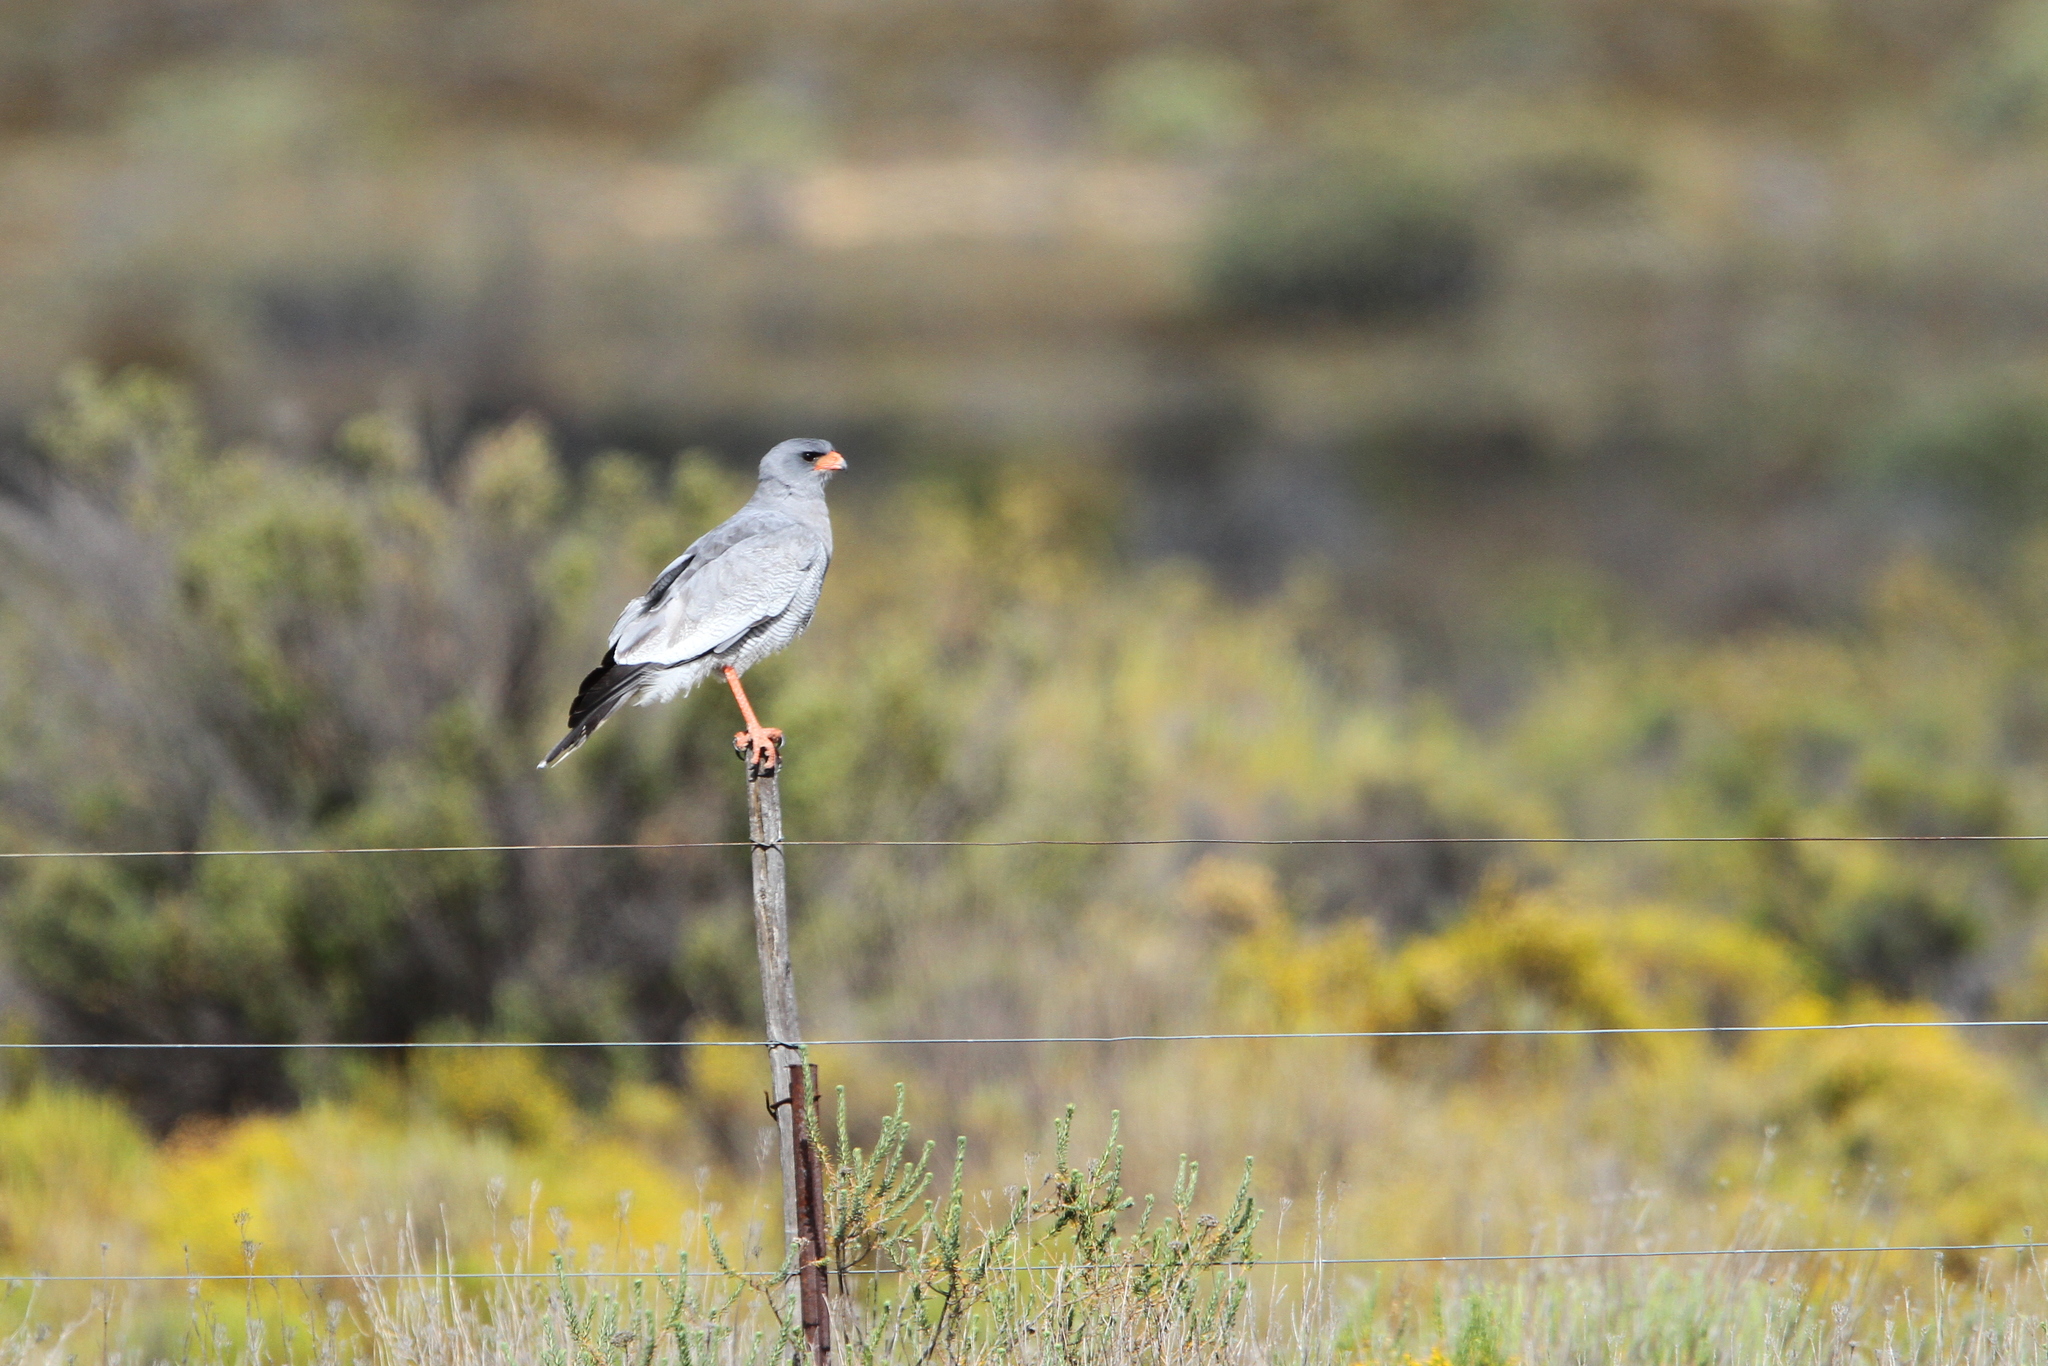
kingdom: Animalia
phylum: Chordata
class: Aves
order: Accipitriformes
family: Accipitridae
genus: Melierax
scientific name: Melierax canorus
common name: Pale chanting-goshawk
